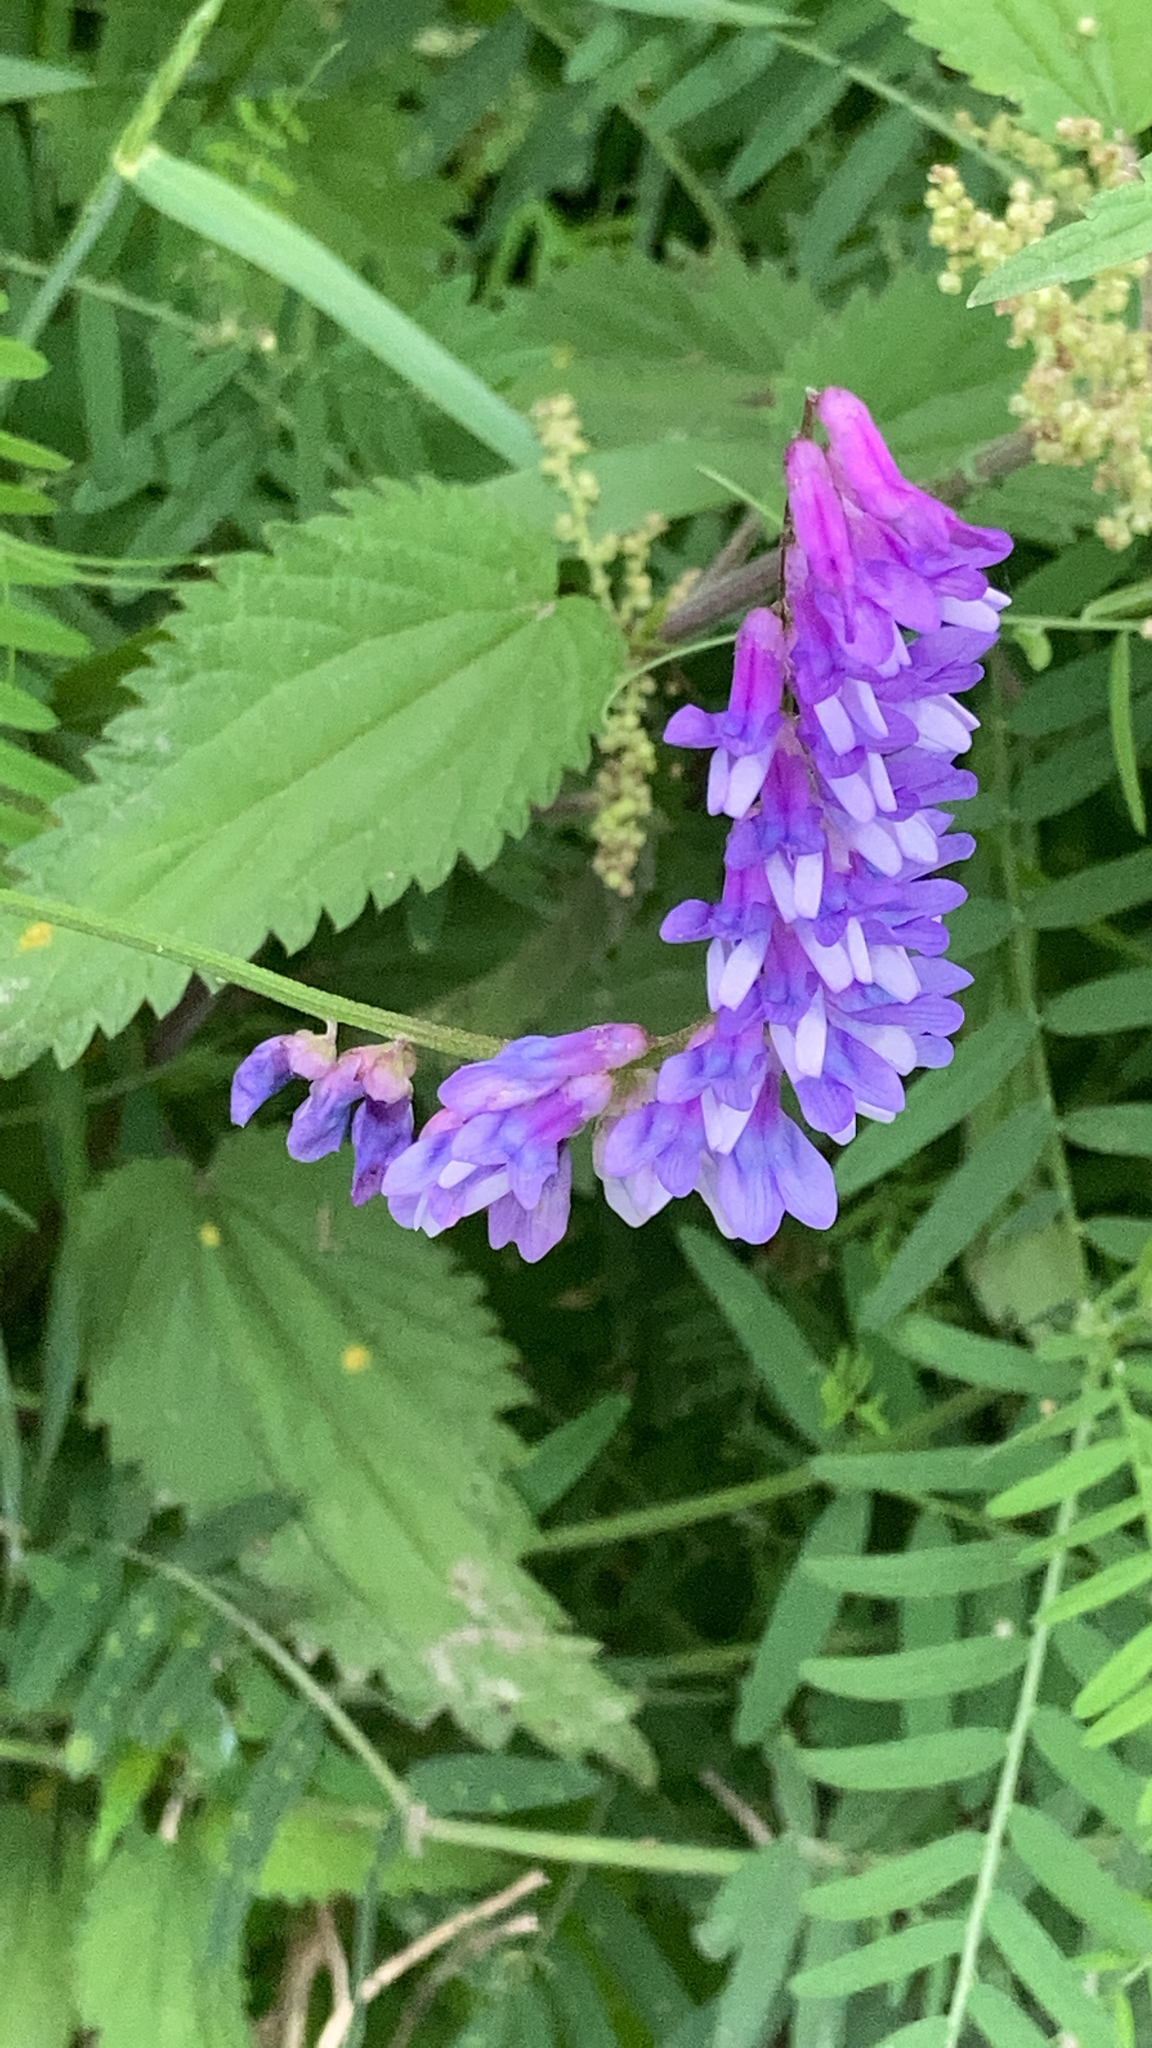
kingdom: Plantae
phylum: Tracheophyta
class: Magnoliopsida
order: Fabales
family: Fabaceae
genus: Vicia
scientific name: Vicia cracca
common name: Bird vetch
